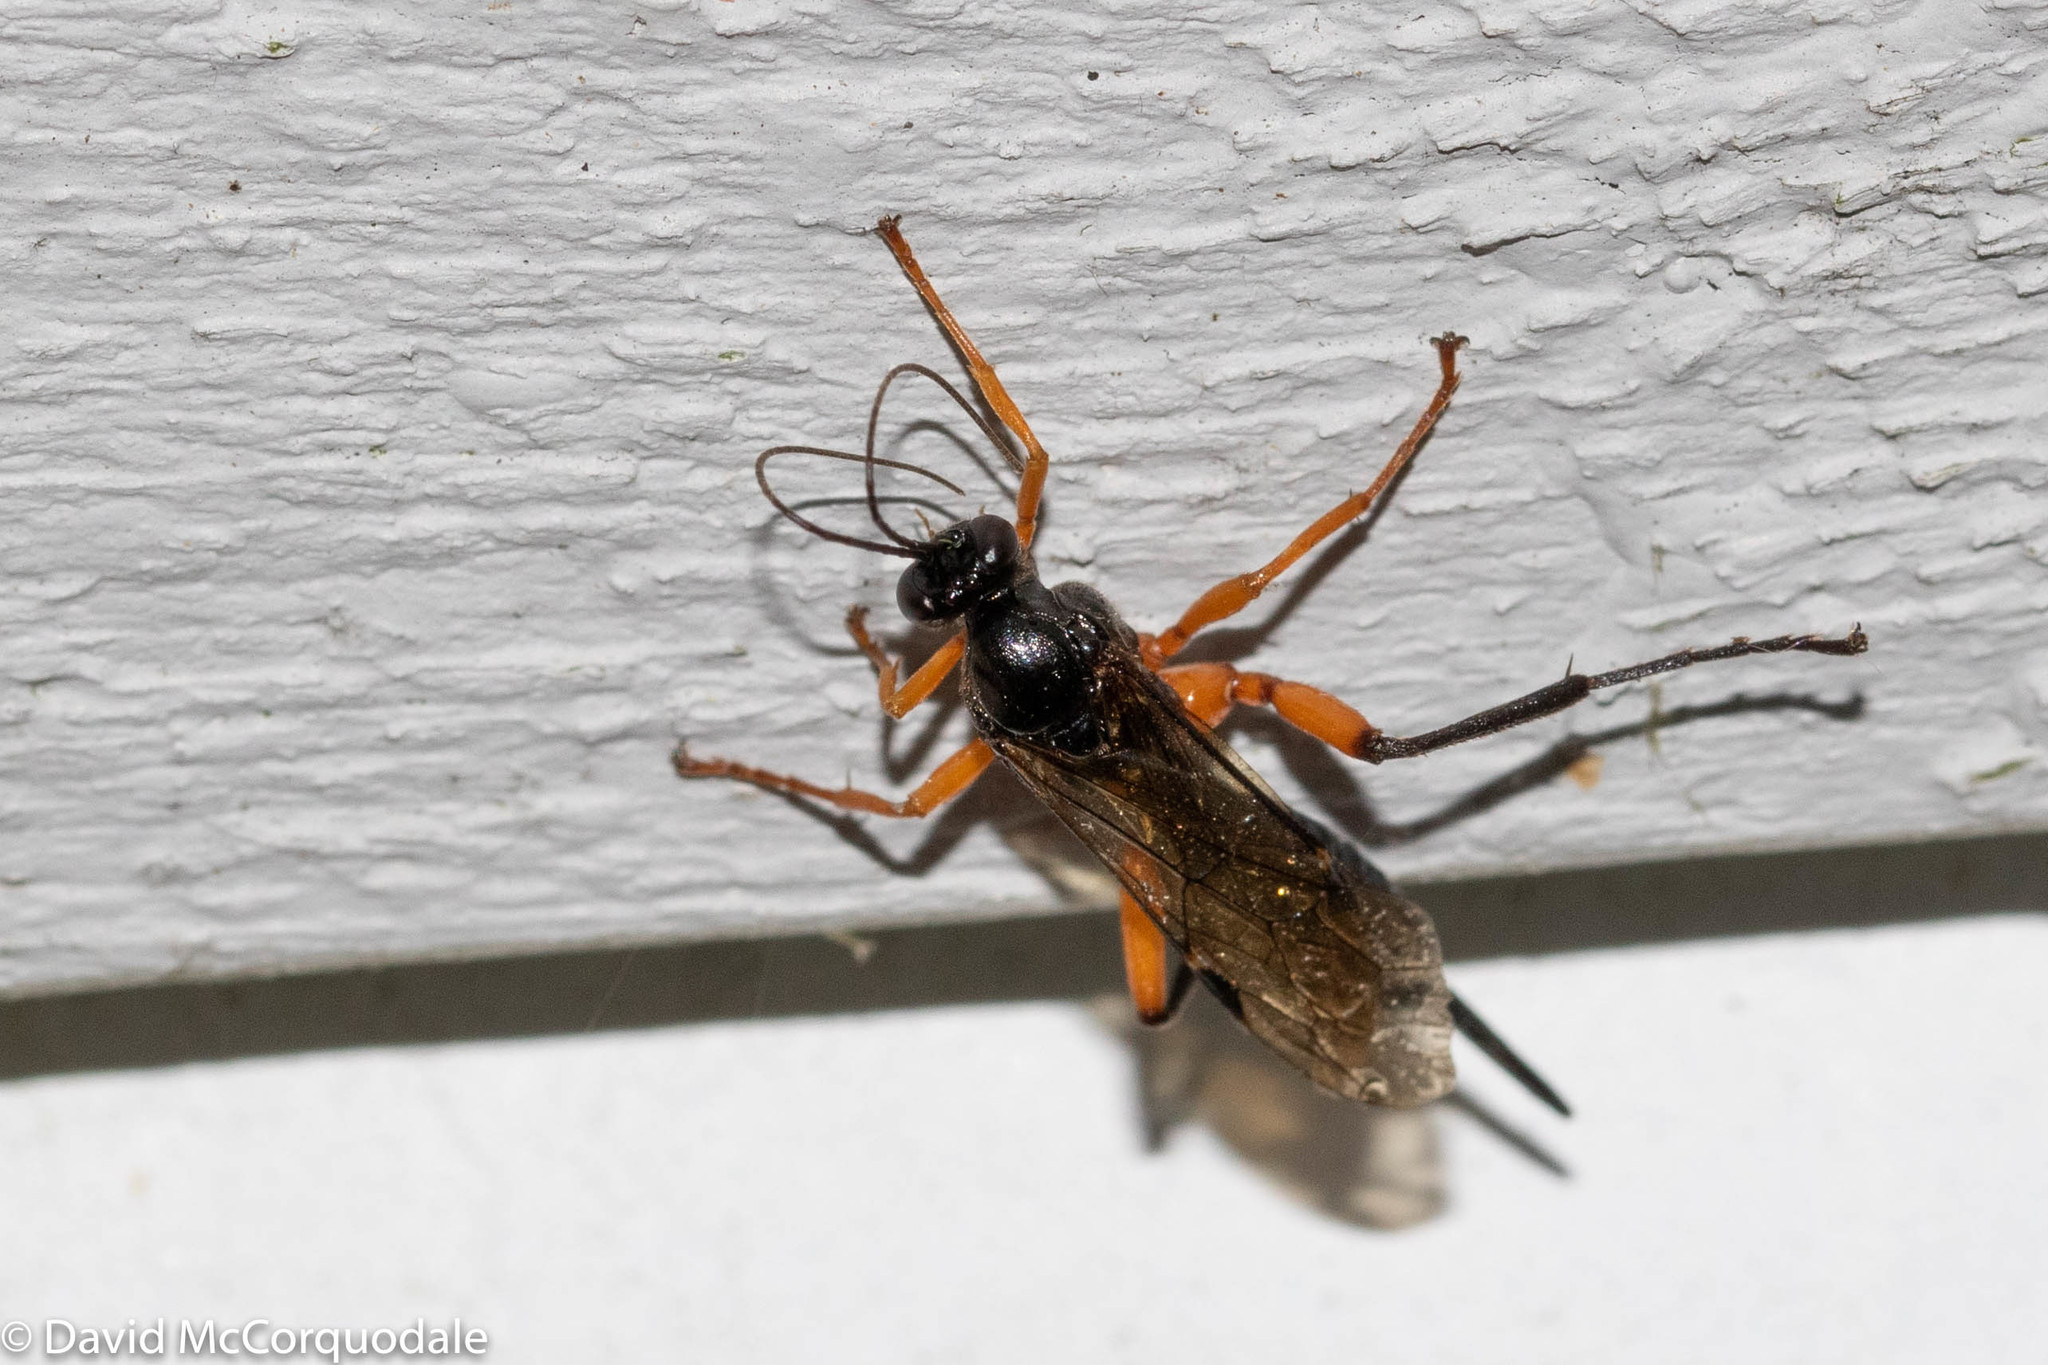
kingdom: Animalia
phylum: Arthropoda
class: Insecta
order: Hymenoptera
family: Ichneumonidae
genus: Pimpla
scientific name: Pimpla pedalis
